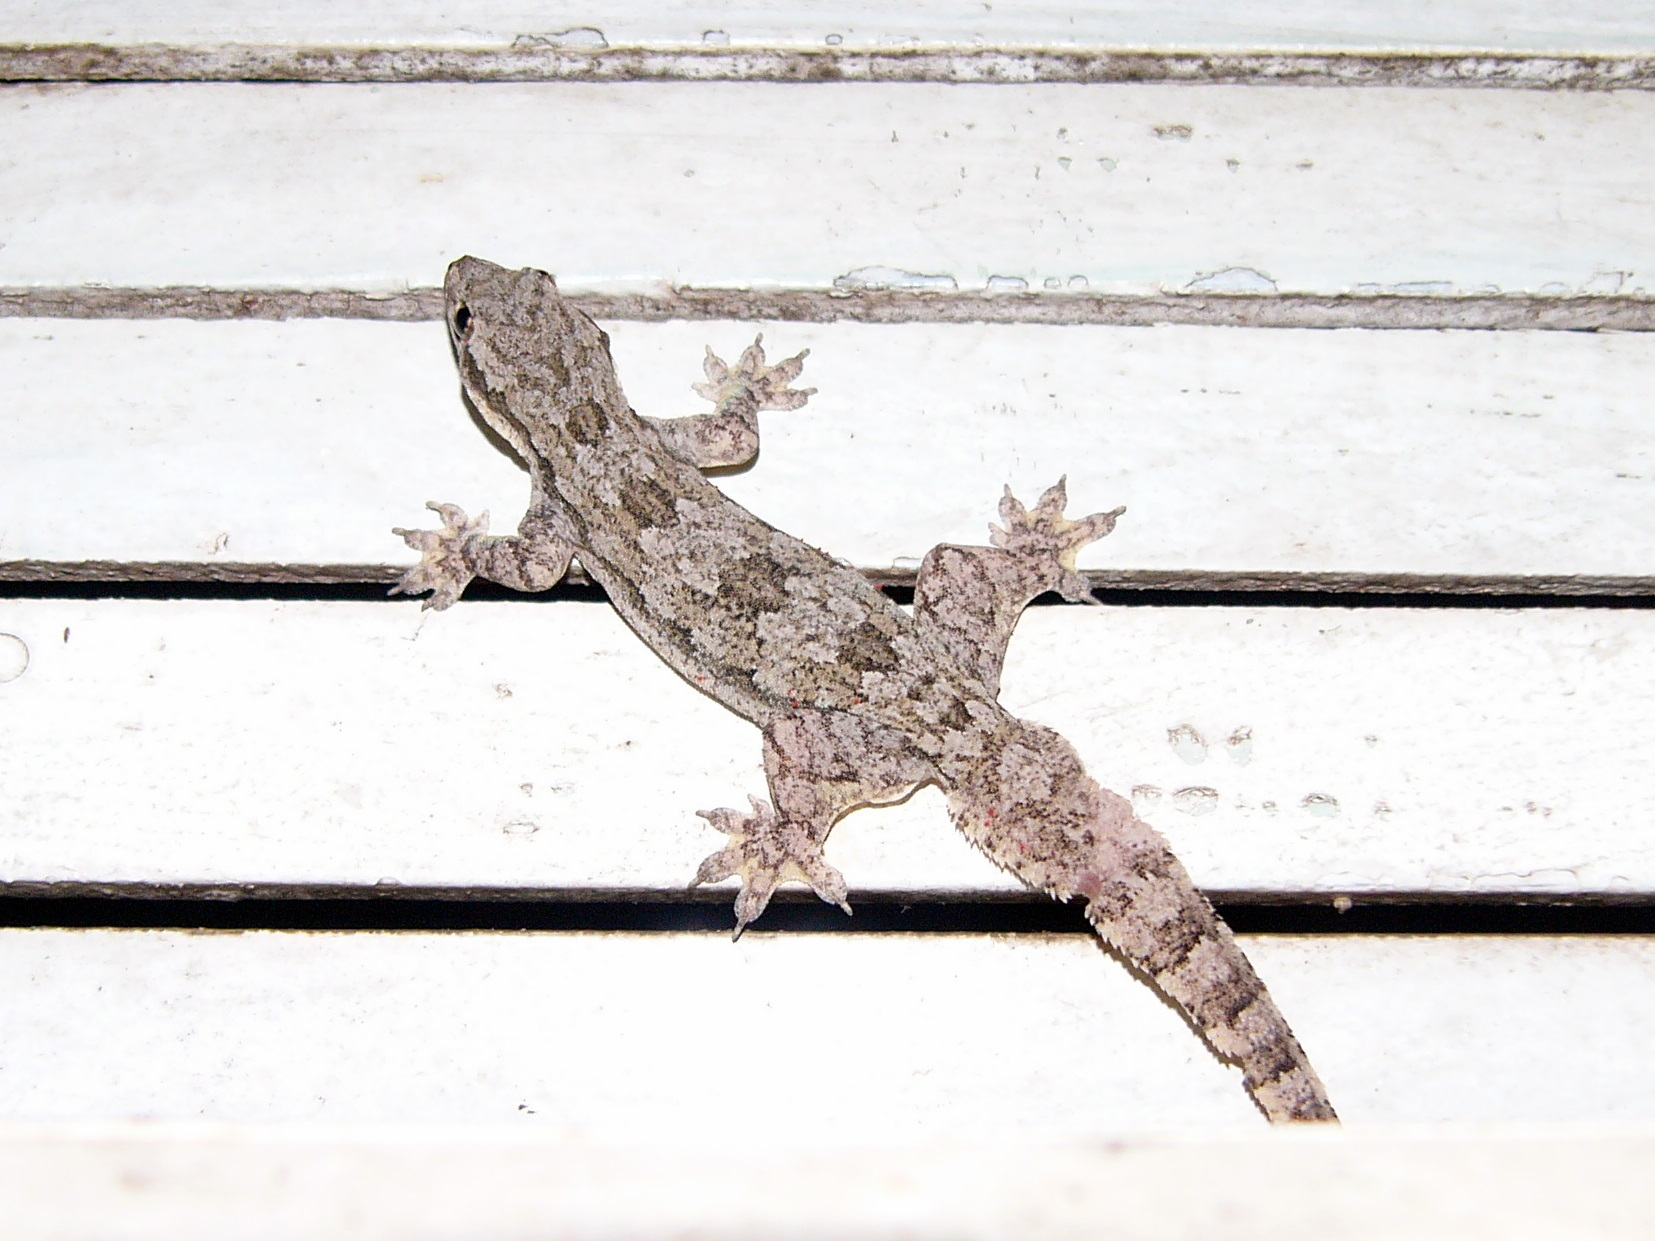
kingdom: Animalia
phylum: Chordata
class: Squamata
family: Gekkonidae
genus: Hemidactylus
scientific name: Hemidactylus platyurus
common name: Flat-tailed house gecko
